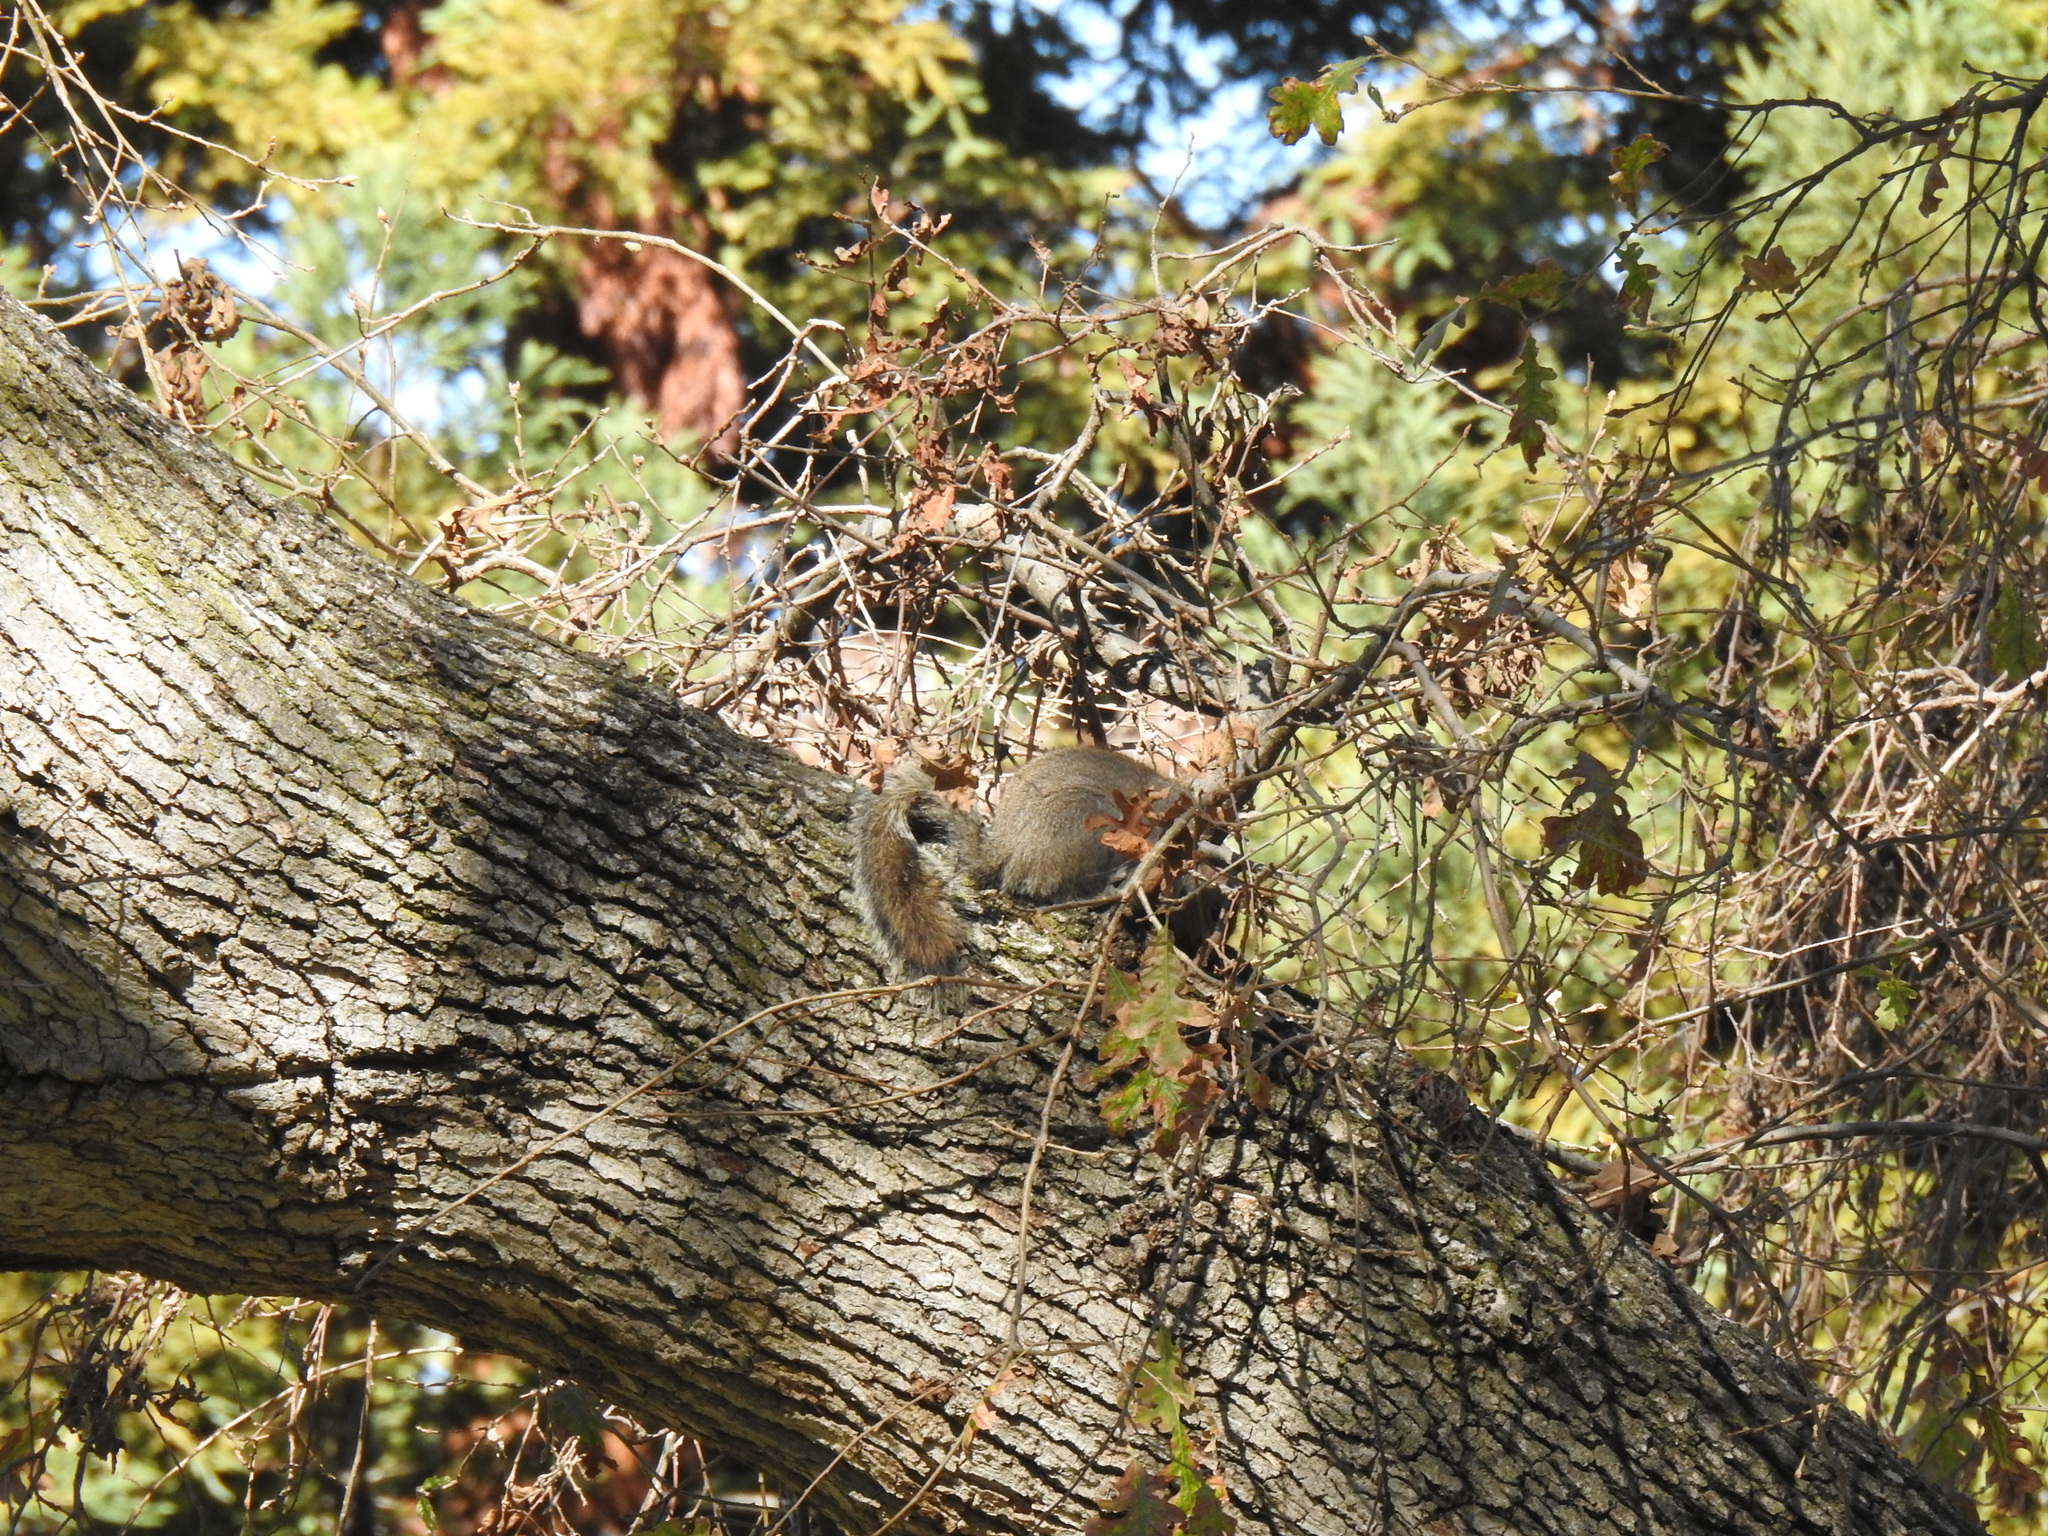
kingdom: Animalia
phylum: Chordata
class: Mammalia
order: Rodentia
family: Sciuridae
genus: Sciurus
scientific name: Sciurus carolinensis
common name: Eastern gray squirrel
